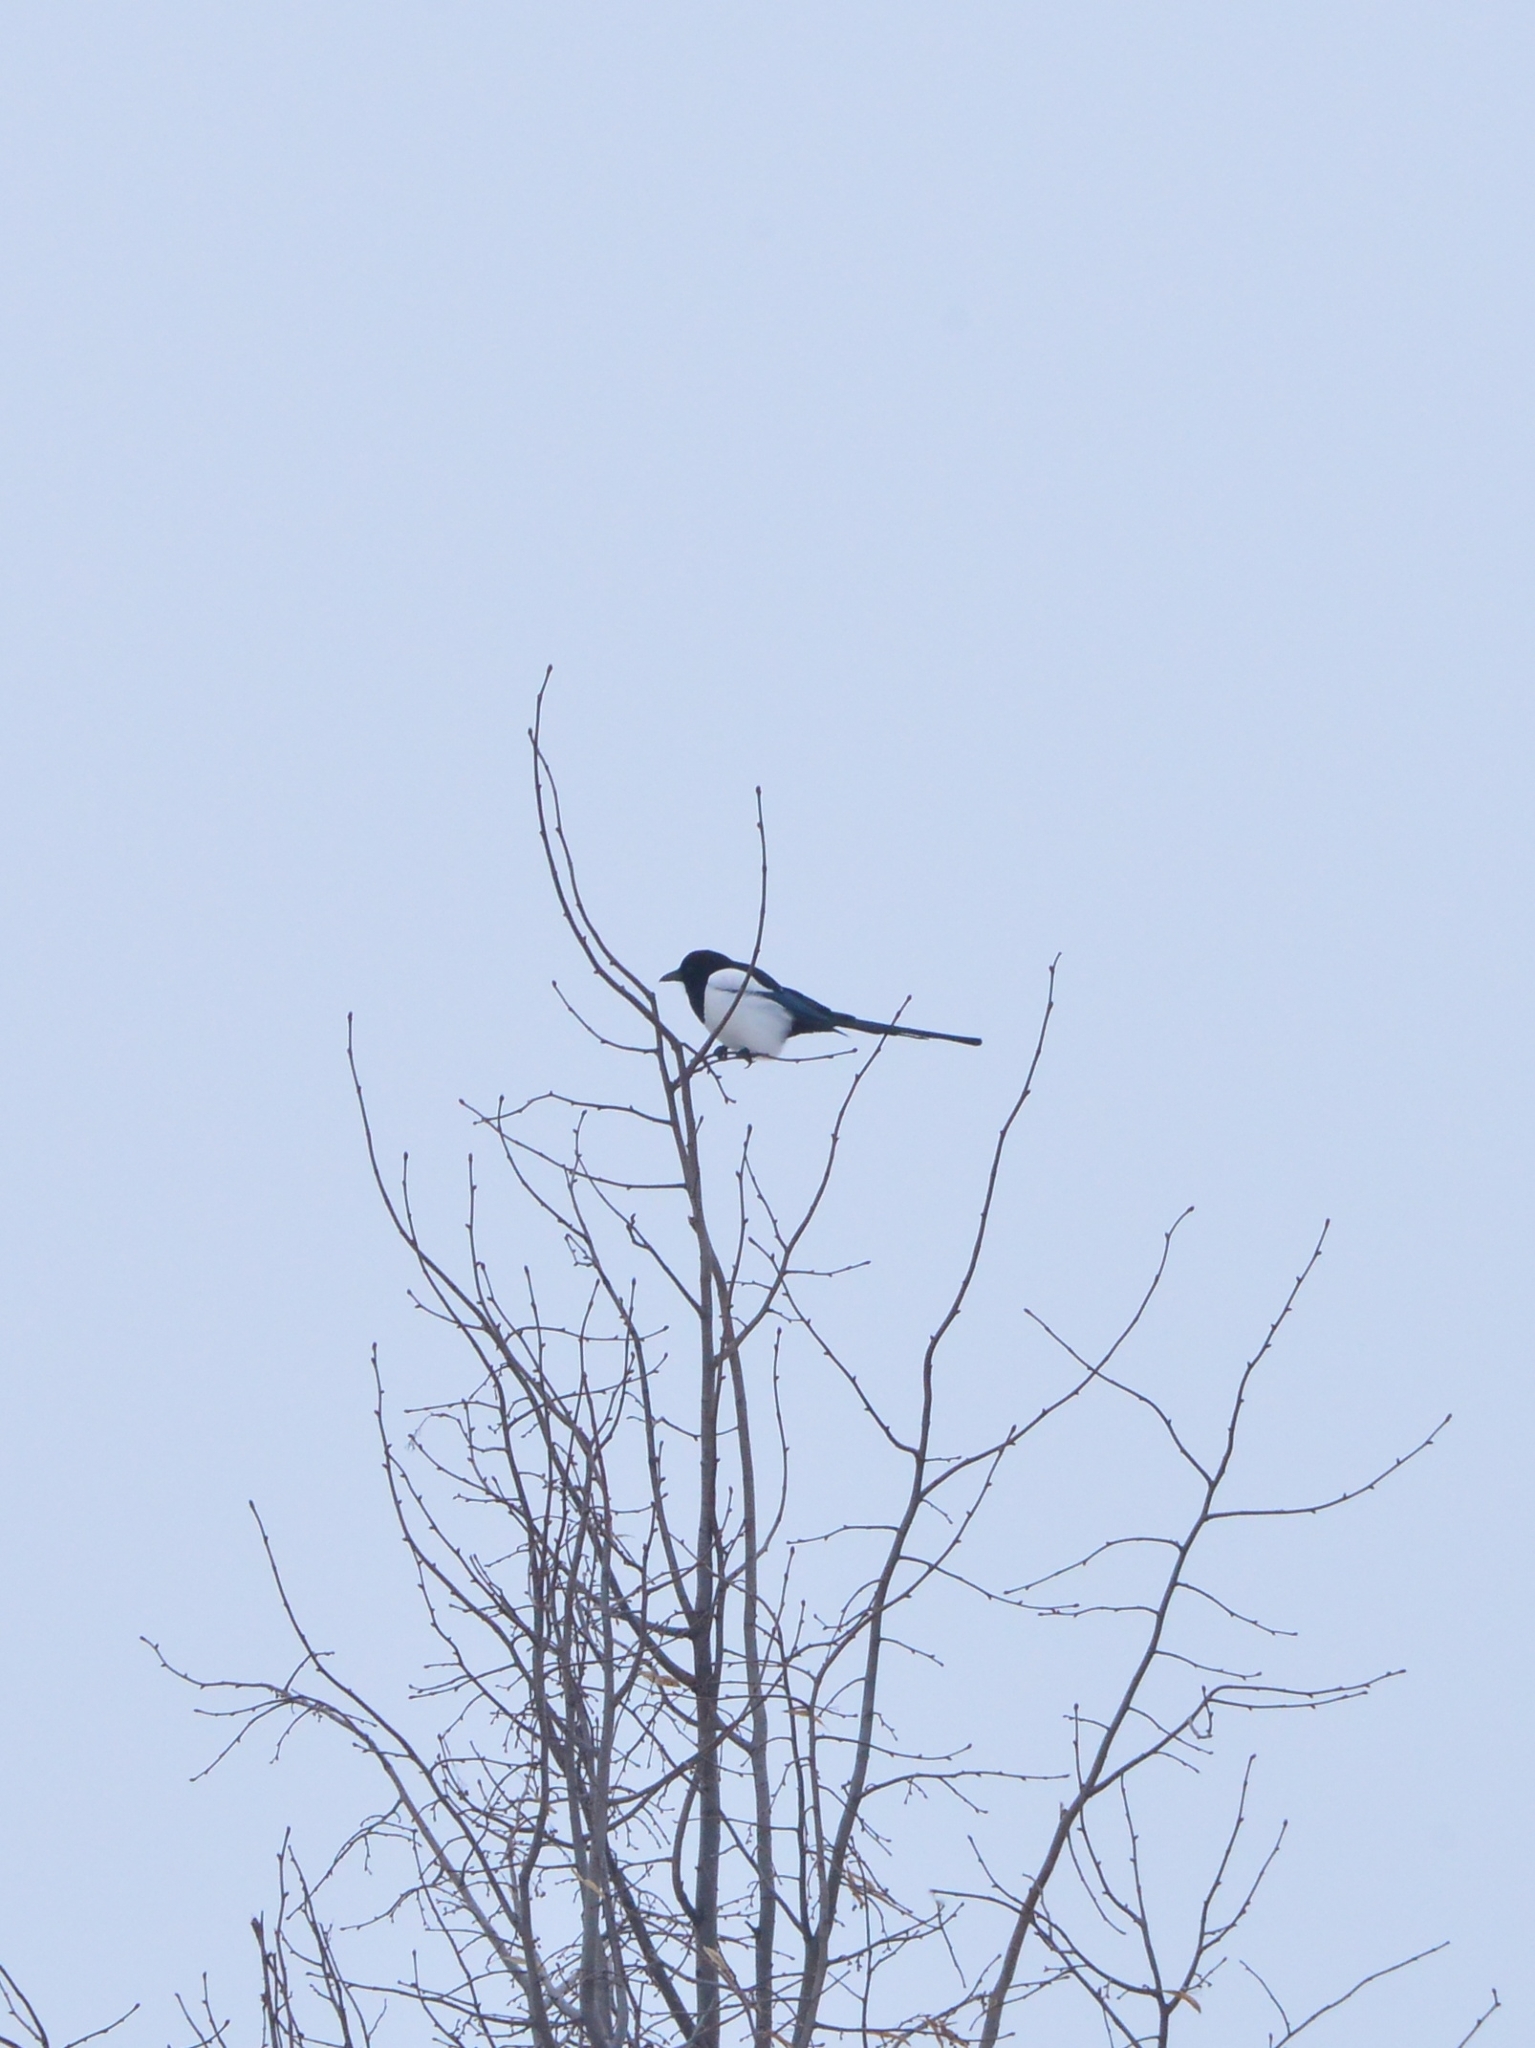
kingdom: Animalia
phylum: Chordata
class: Aves
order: Passeriformes
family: Corvidae
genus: Pica
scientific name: Pica pica
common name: Eurasian magpie
